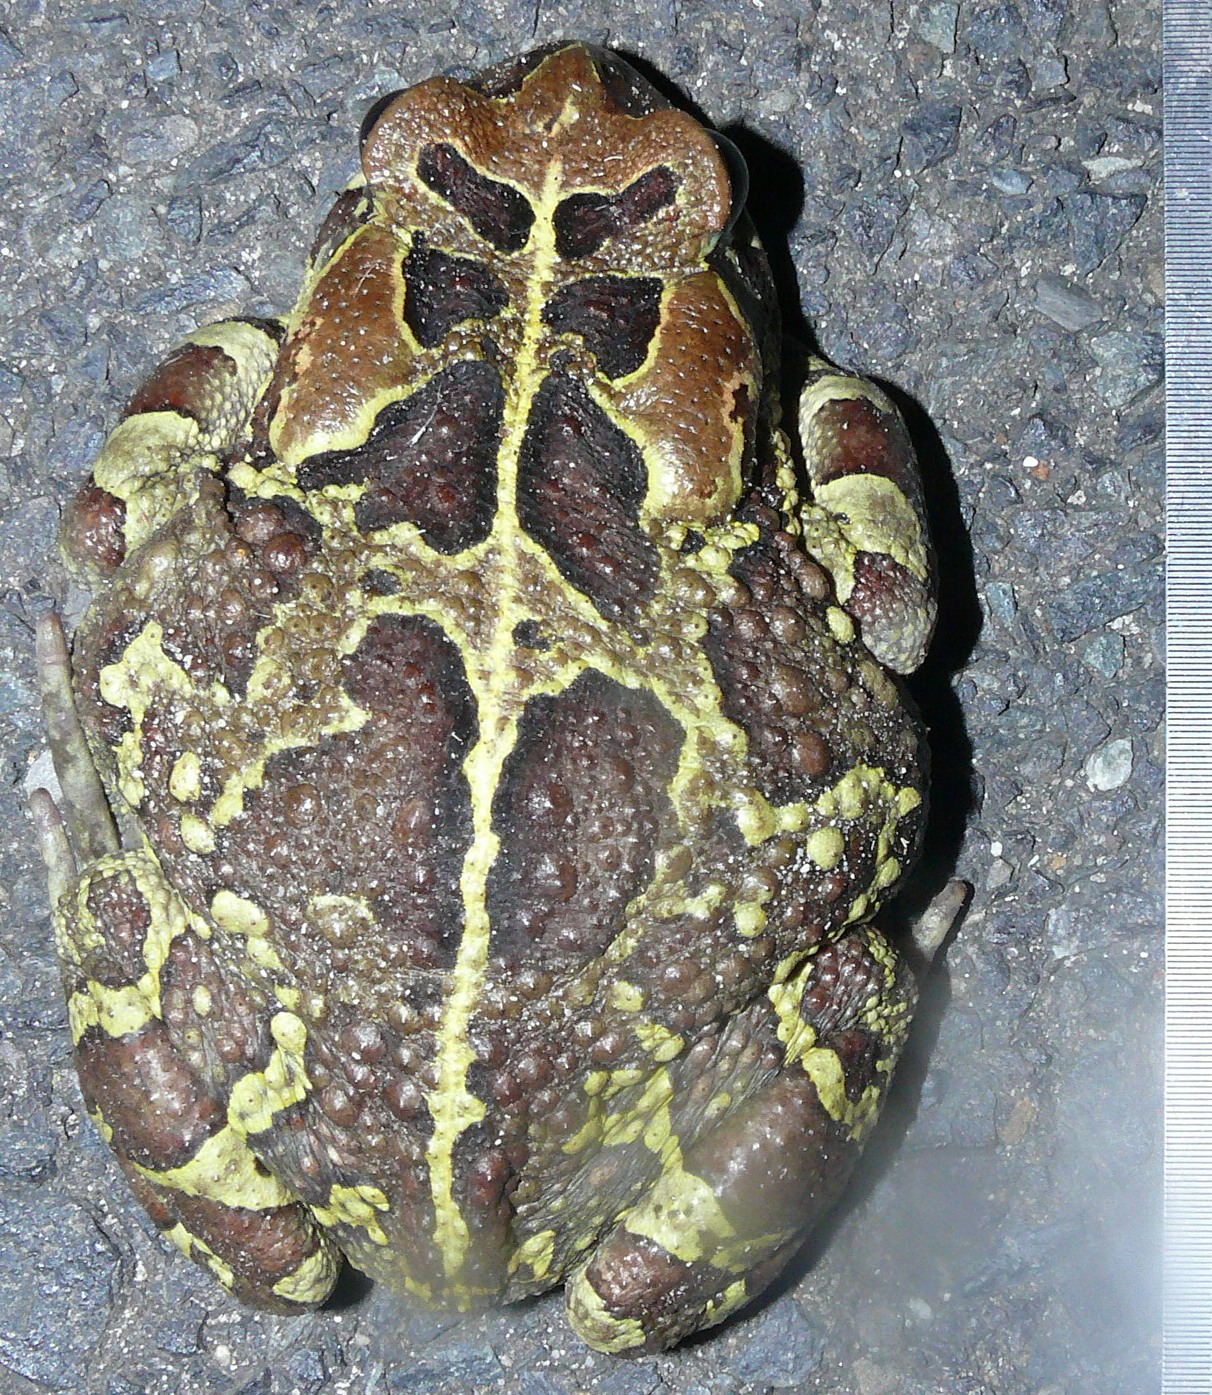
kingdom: Animalia
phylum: Chordata
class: Amphibia
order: Anura
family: Bufonidae
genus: Sclerophrys
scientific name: Sclerophrys pantherina
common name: Panther toad
